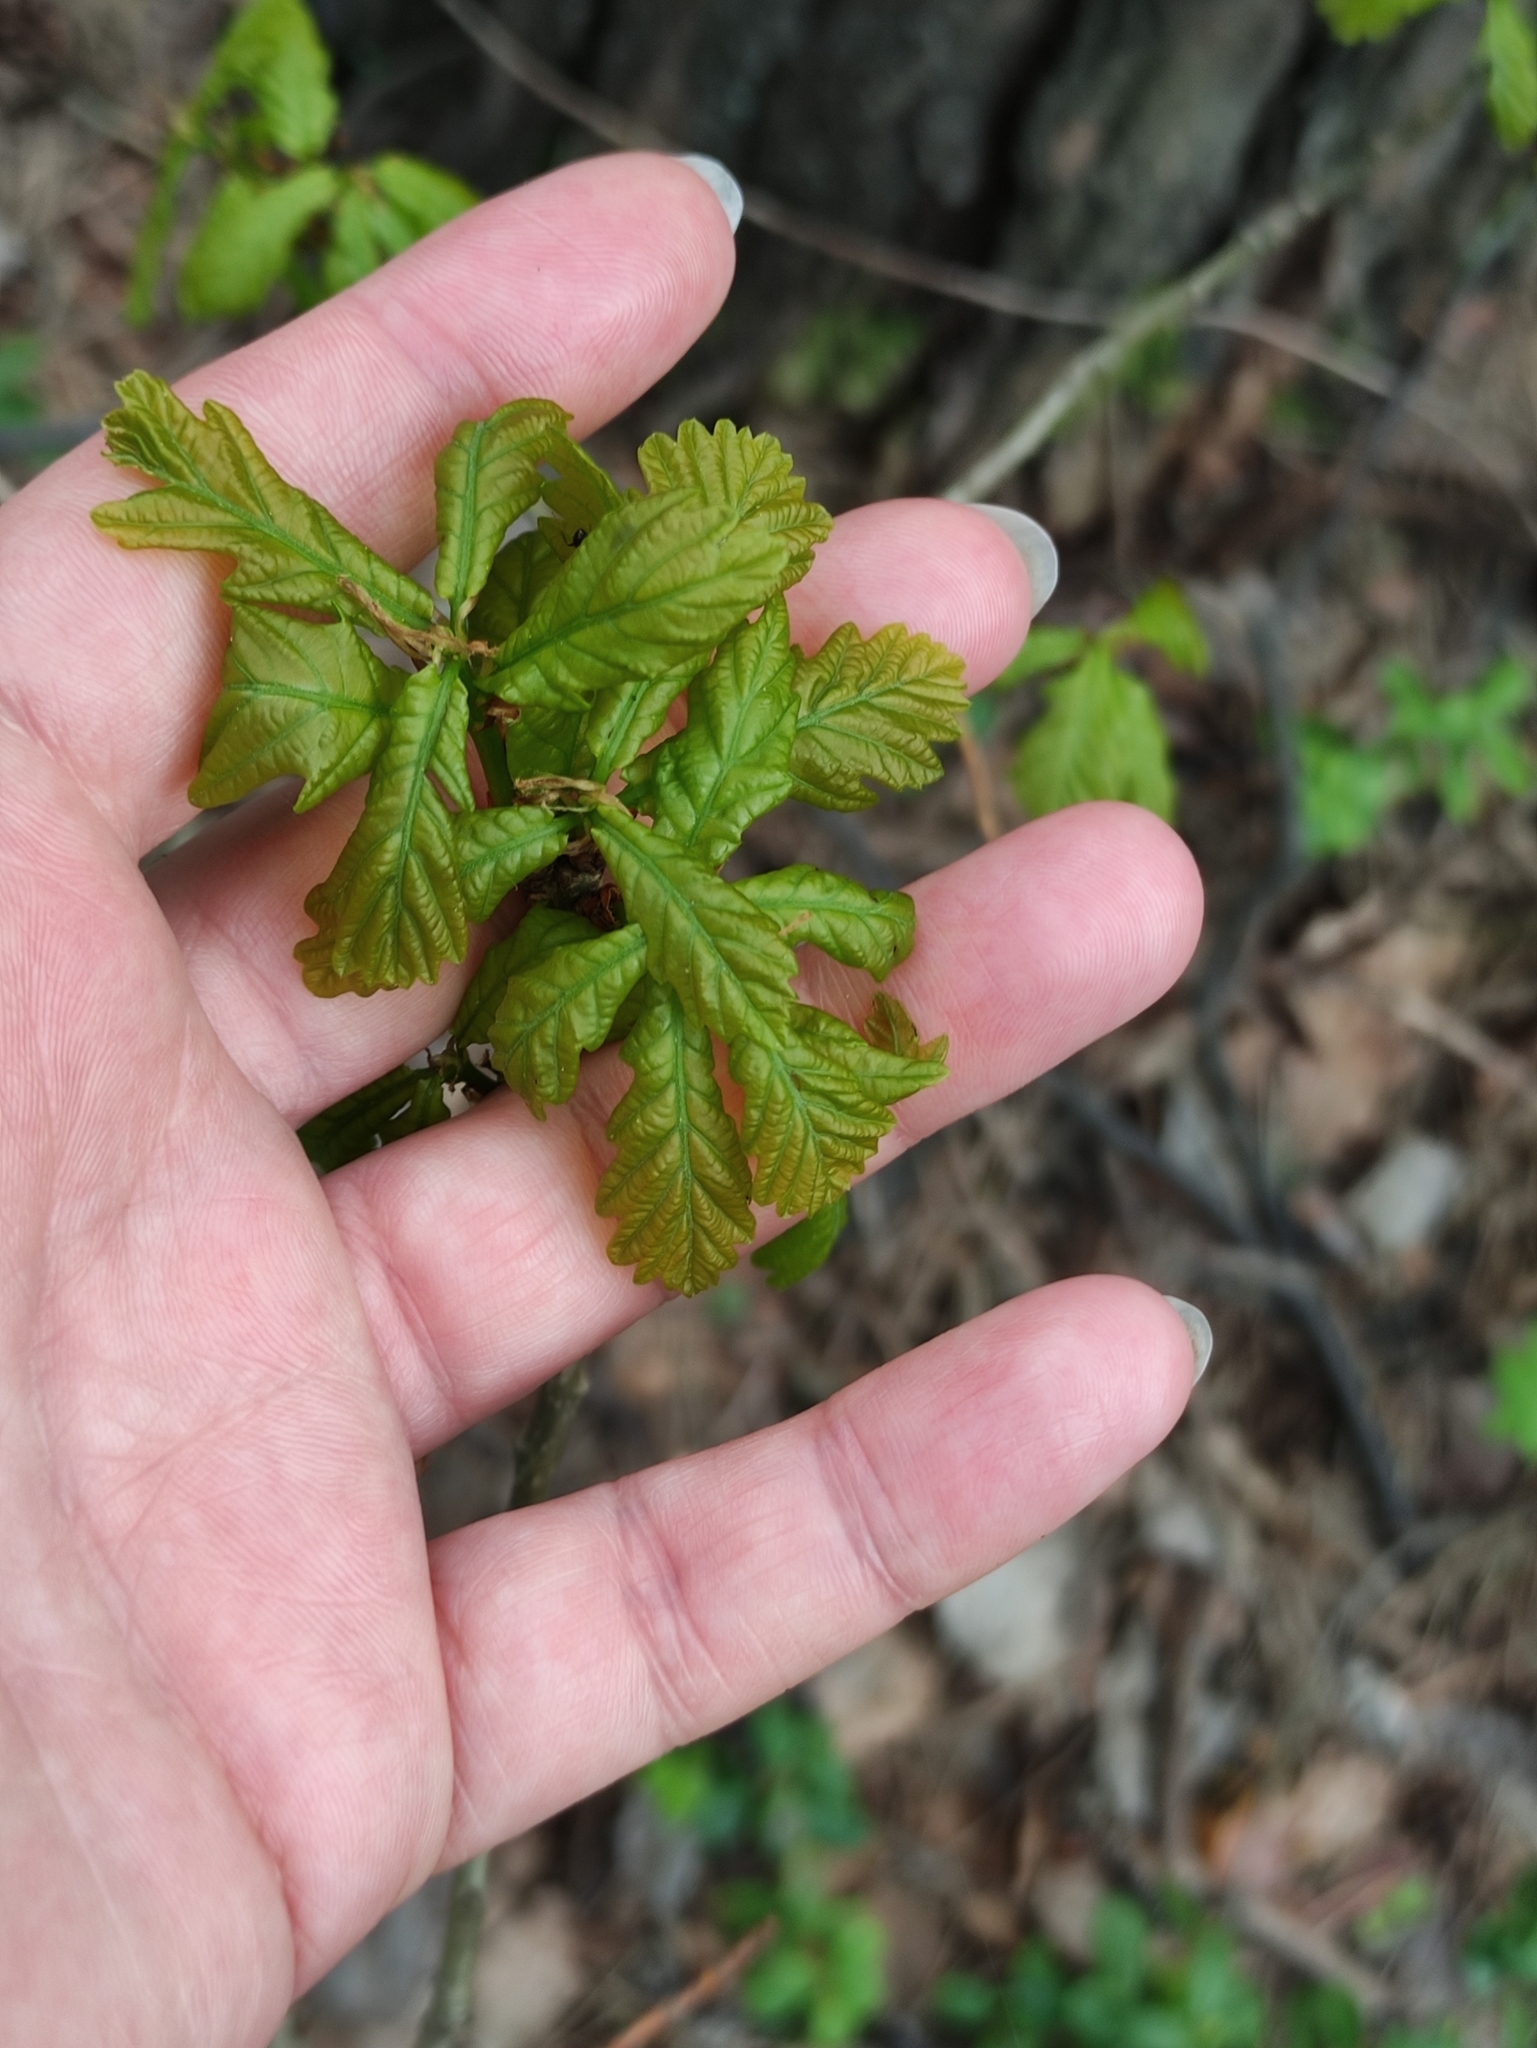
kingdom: Plantae
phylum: Tracheophyta
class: Magnoliopsida
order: Fagales
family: Fagaceae
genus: Quercus
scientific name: Quercus robur
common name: Pedunculate oak
